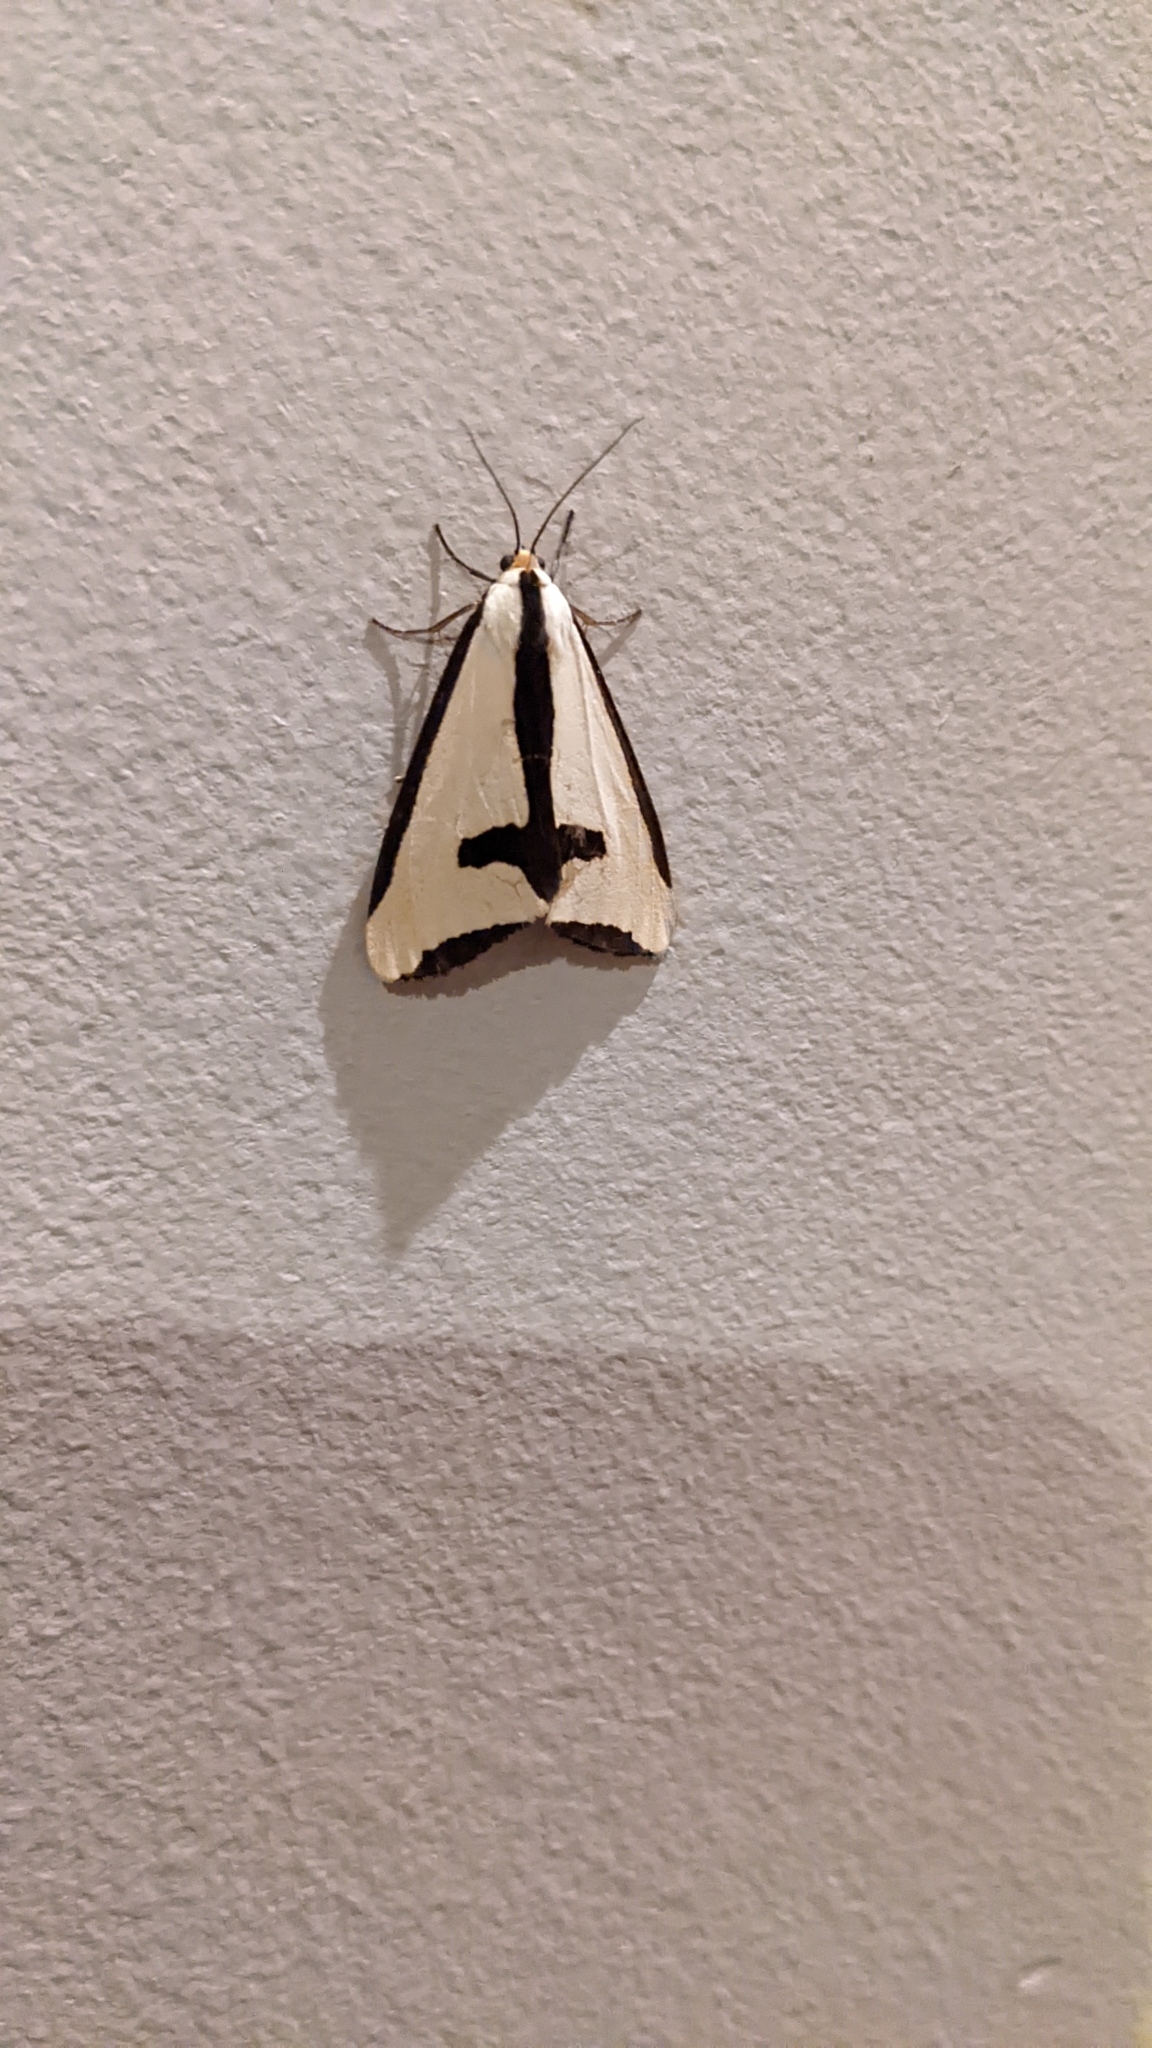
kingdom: Animalia
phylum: Arthropoda
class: Insecta
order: Lepidoptera
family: Erebidae
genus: Haploa
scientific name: Haploa clymene
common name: Clymene moth
